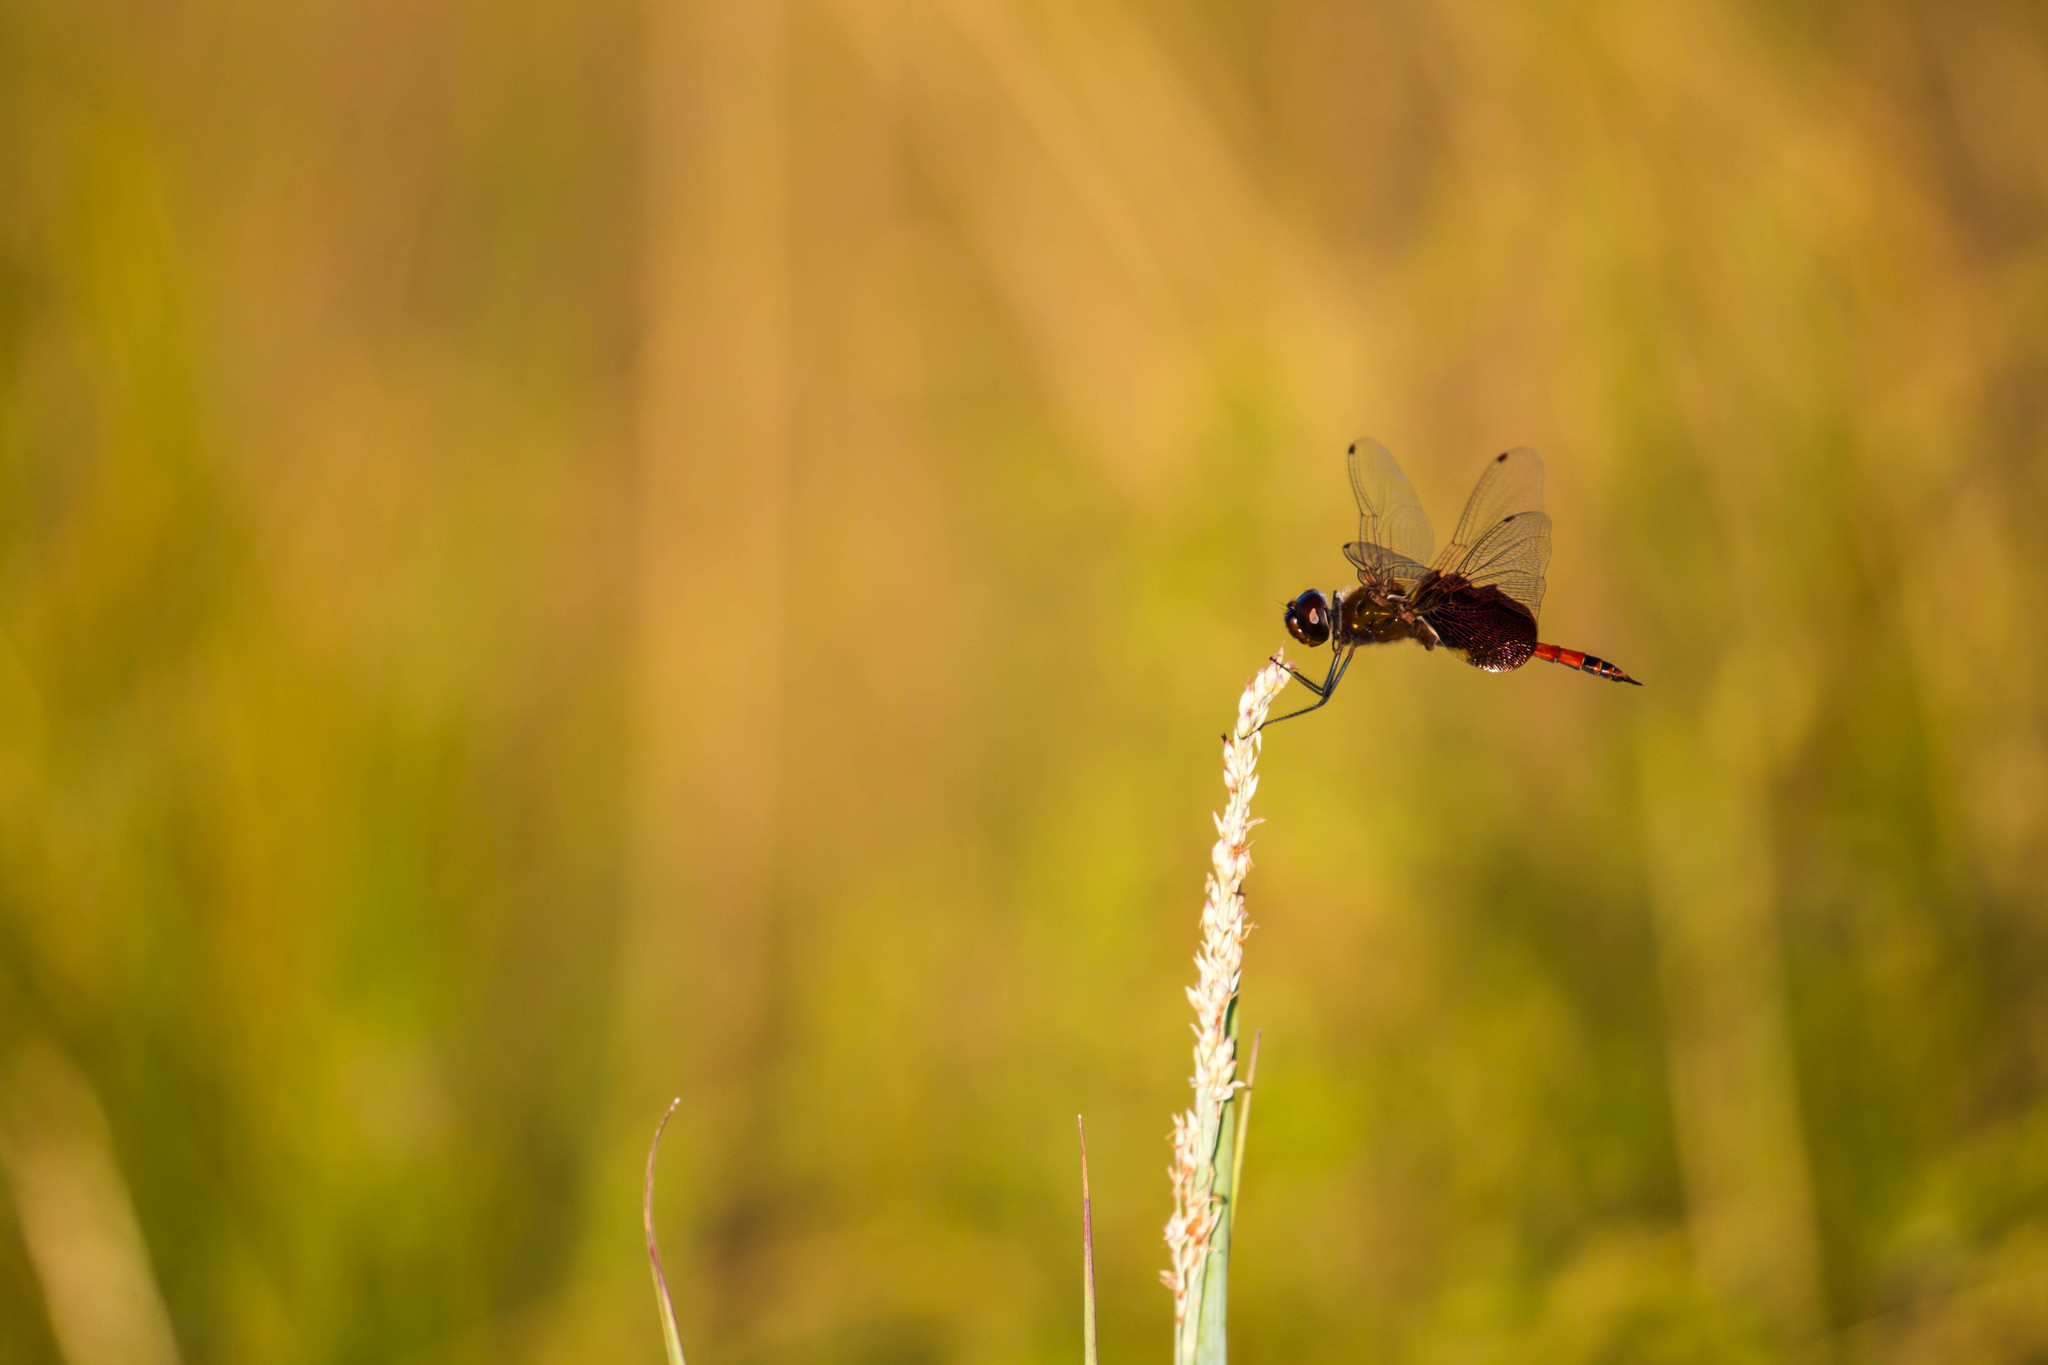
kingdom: Animalia
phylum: Arthropoda
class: Insecta
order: Odonata
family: Libellulidae
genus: Tramea
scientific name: Tramea carolina
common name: Carolina saddlebags
